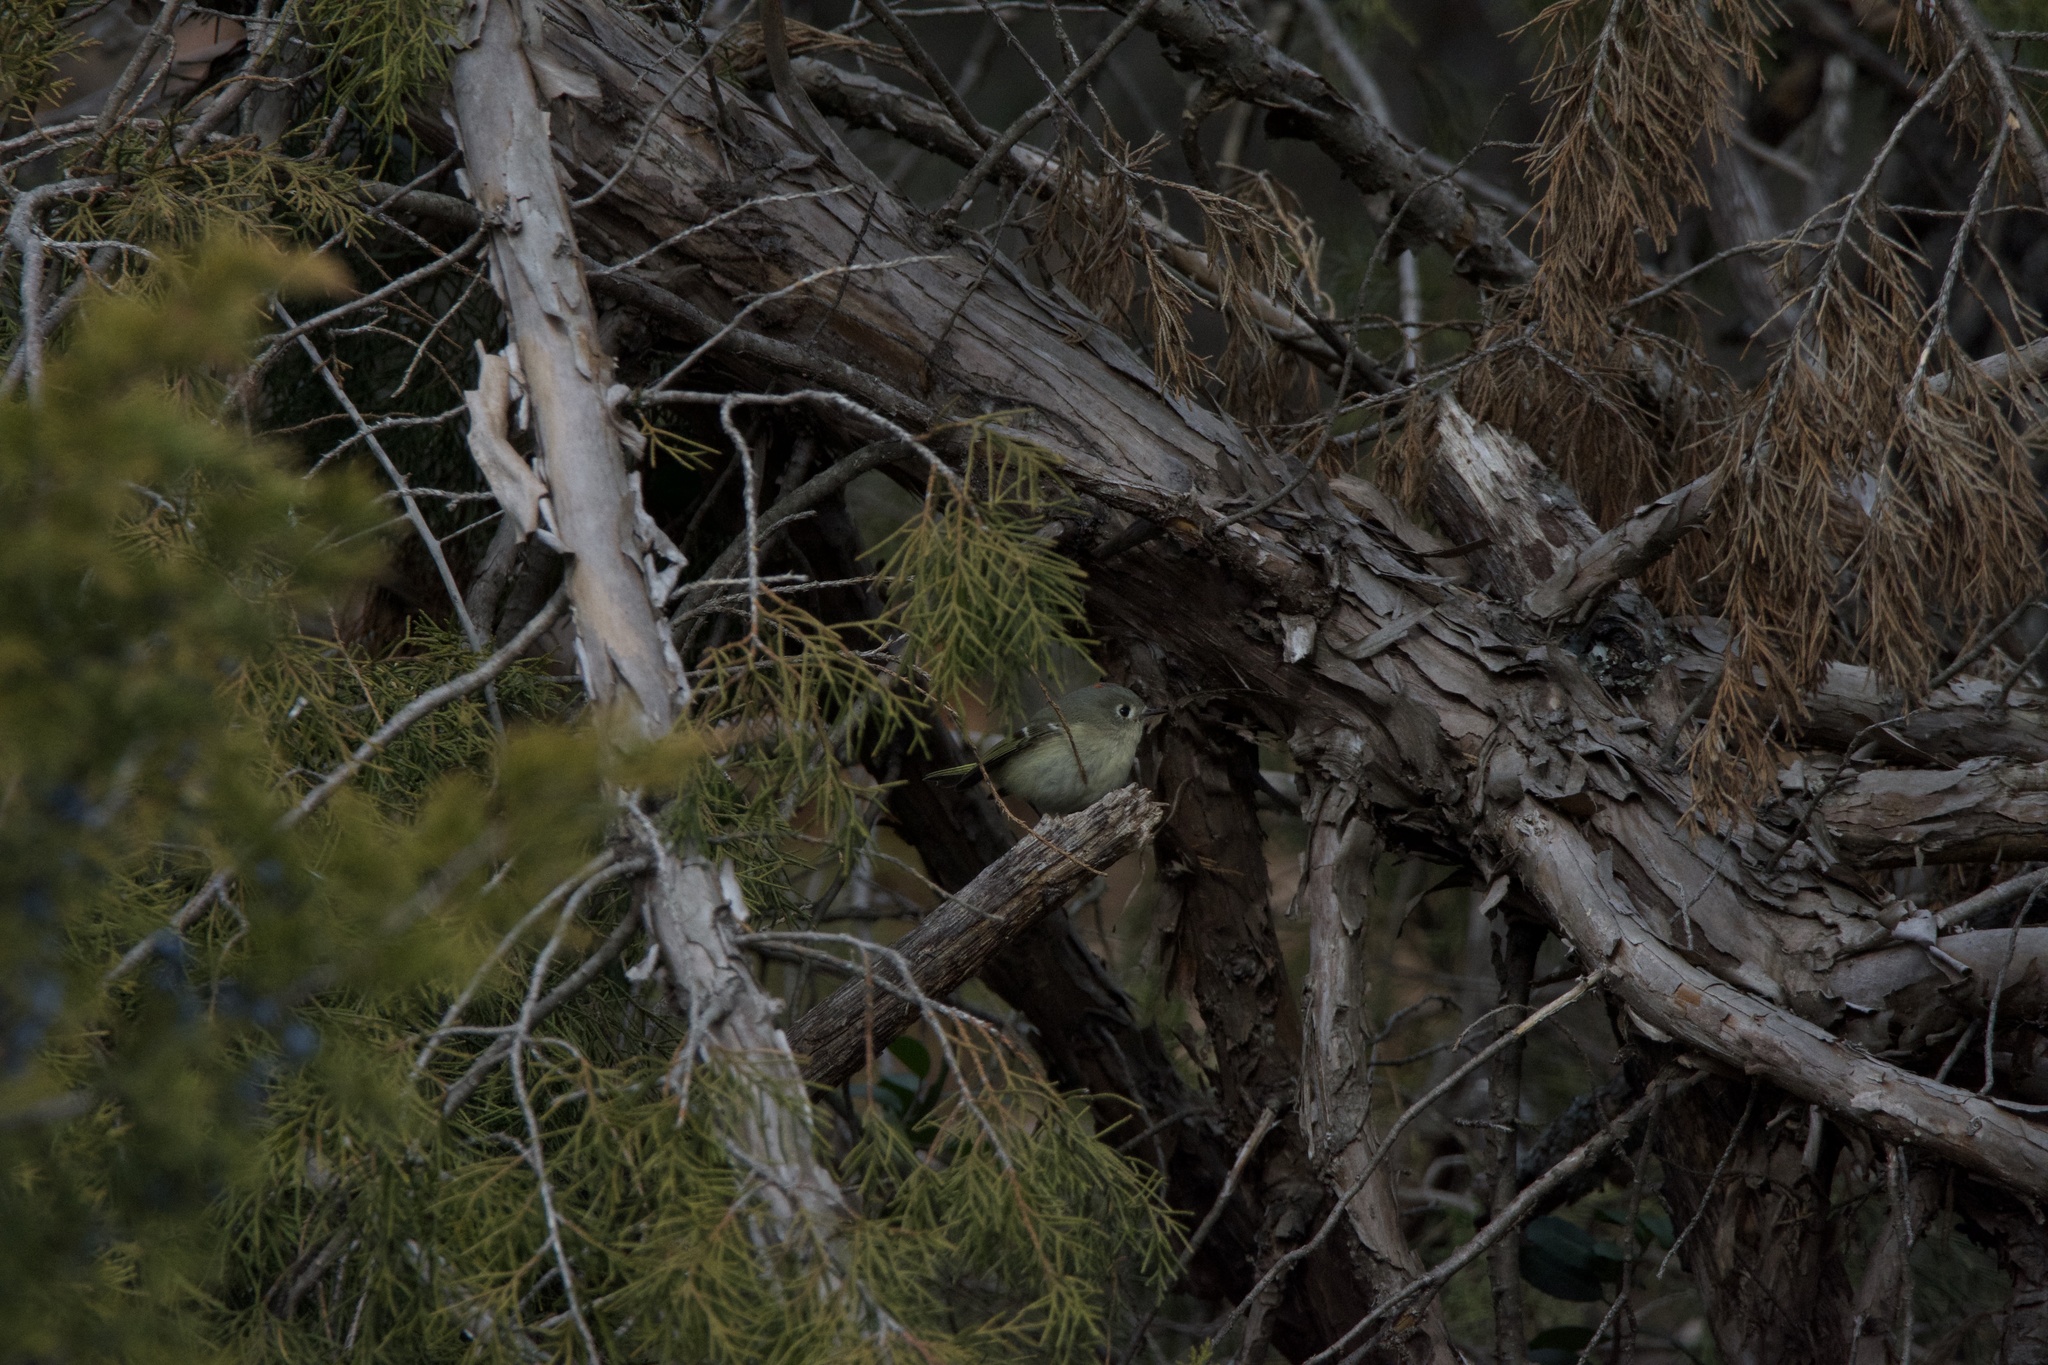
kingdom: Animalia
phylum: Chordata
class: Aves
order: Passeriformes
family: Regulidae
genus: Regulus
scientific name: Regulus calendula
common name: Ruby-crowned kinglet
